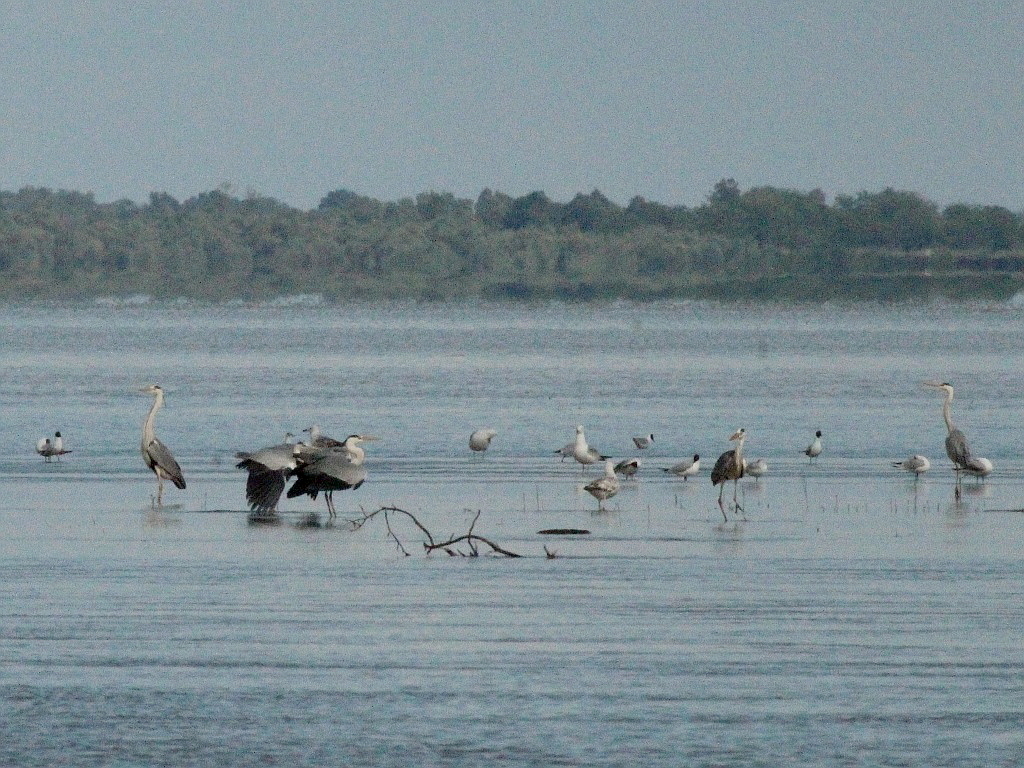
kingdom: Animalia
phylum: Chordata
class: Aves
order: Pelecaniformes
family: Ardeidae
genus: Ardea
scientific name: Ardea cinerea
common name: Grey heron
